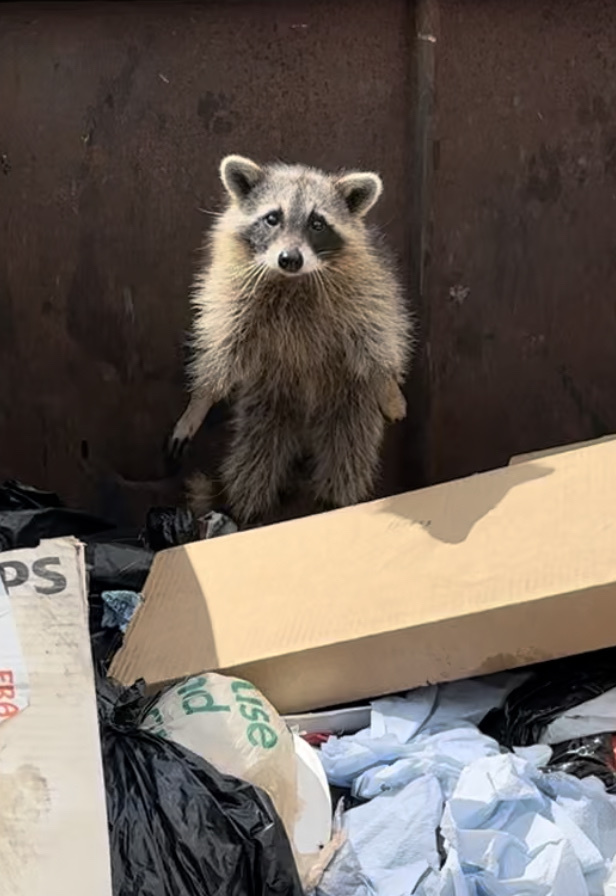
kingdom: Animalia
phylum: Chordata
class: Mammalia
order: Carnivora
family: Procyonidae
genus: Procyon
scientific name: Procyon lotor
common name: Raccoon
